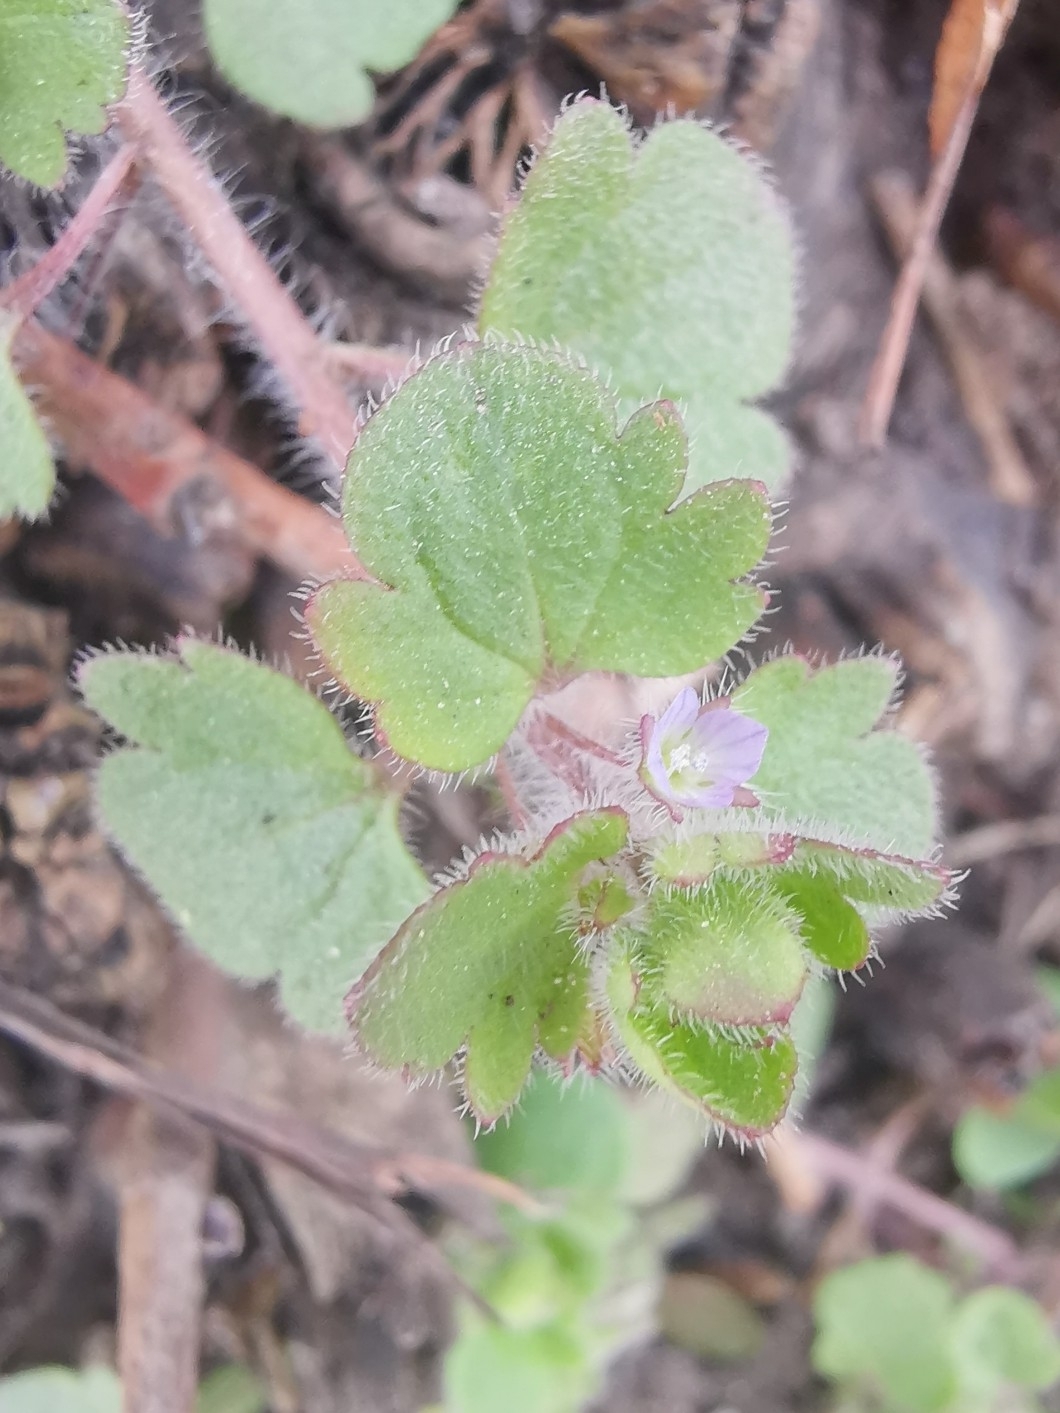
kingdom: Plantae
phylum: Tracheophyta
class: Magnoliopsida
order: Lamiales
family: Plantaginaceae
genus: Veronica
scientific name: Veronica sublobata
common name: False ivy-leaved speedwell
